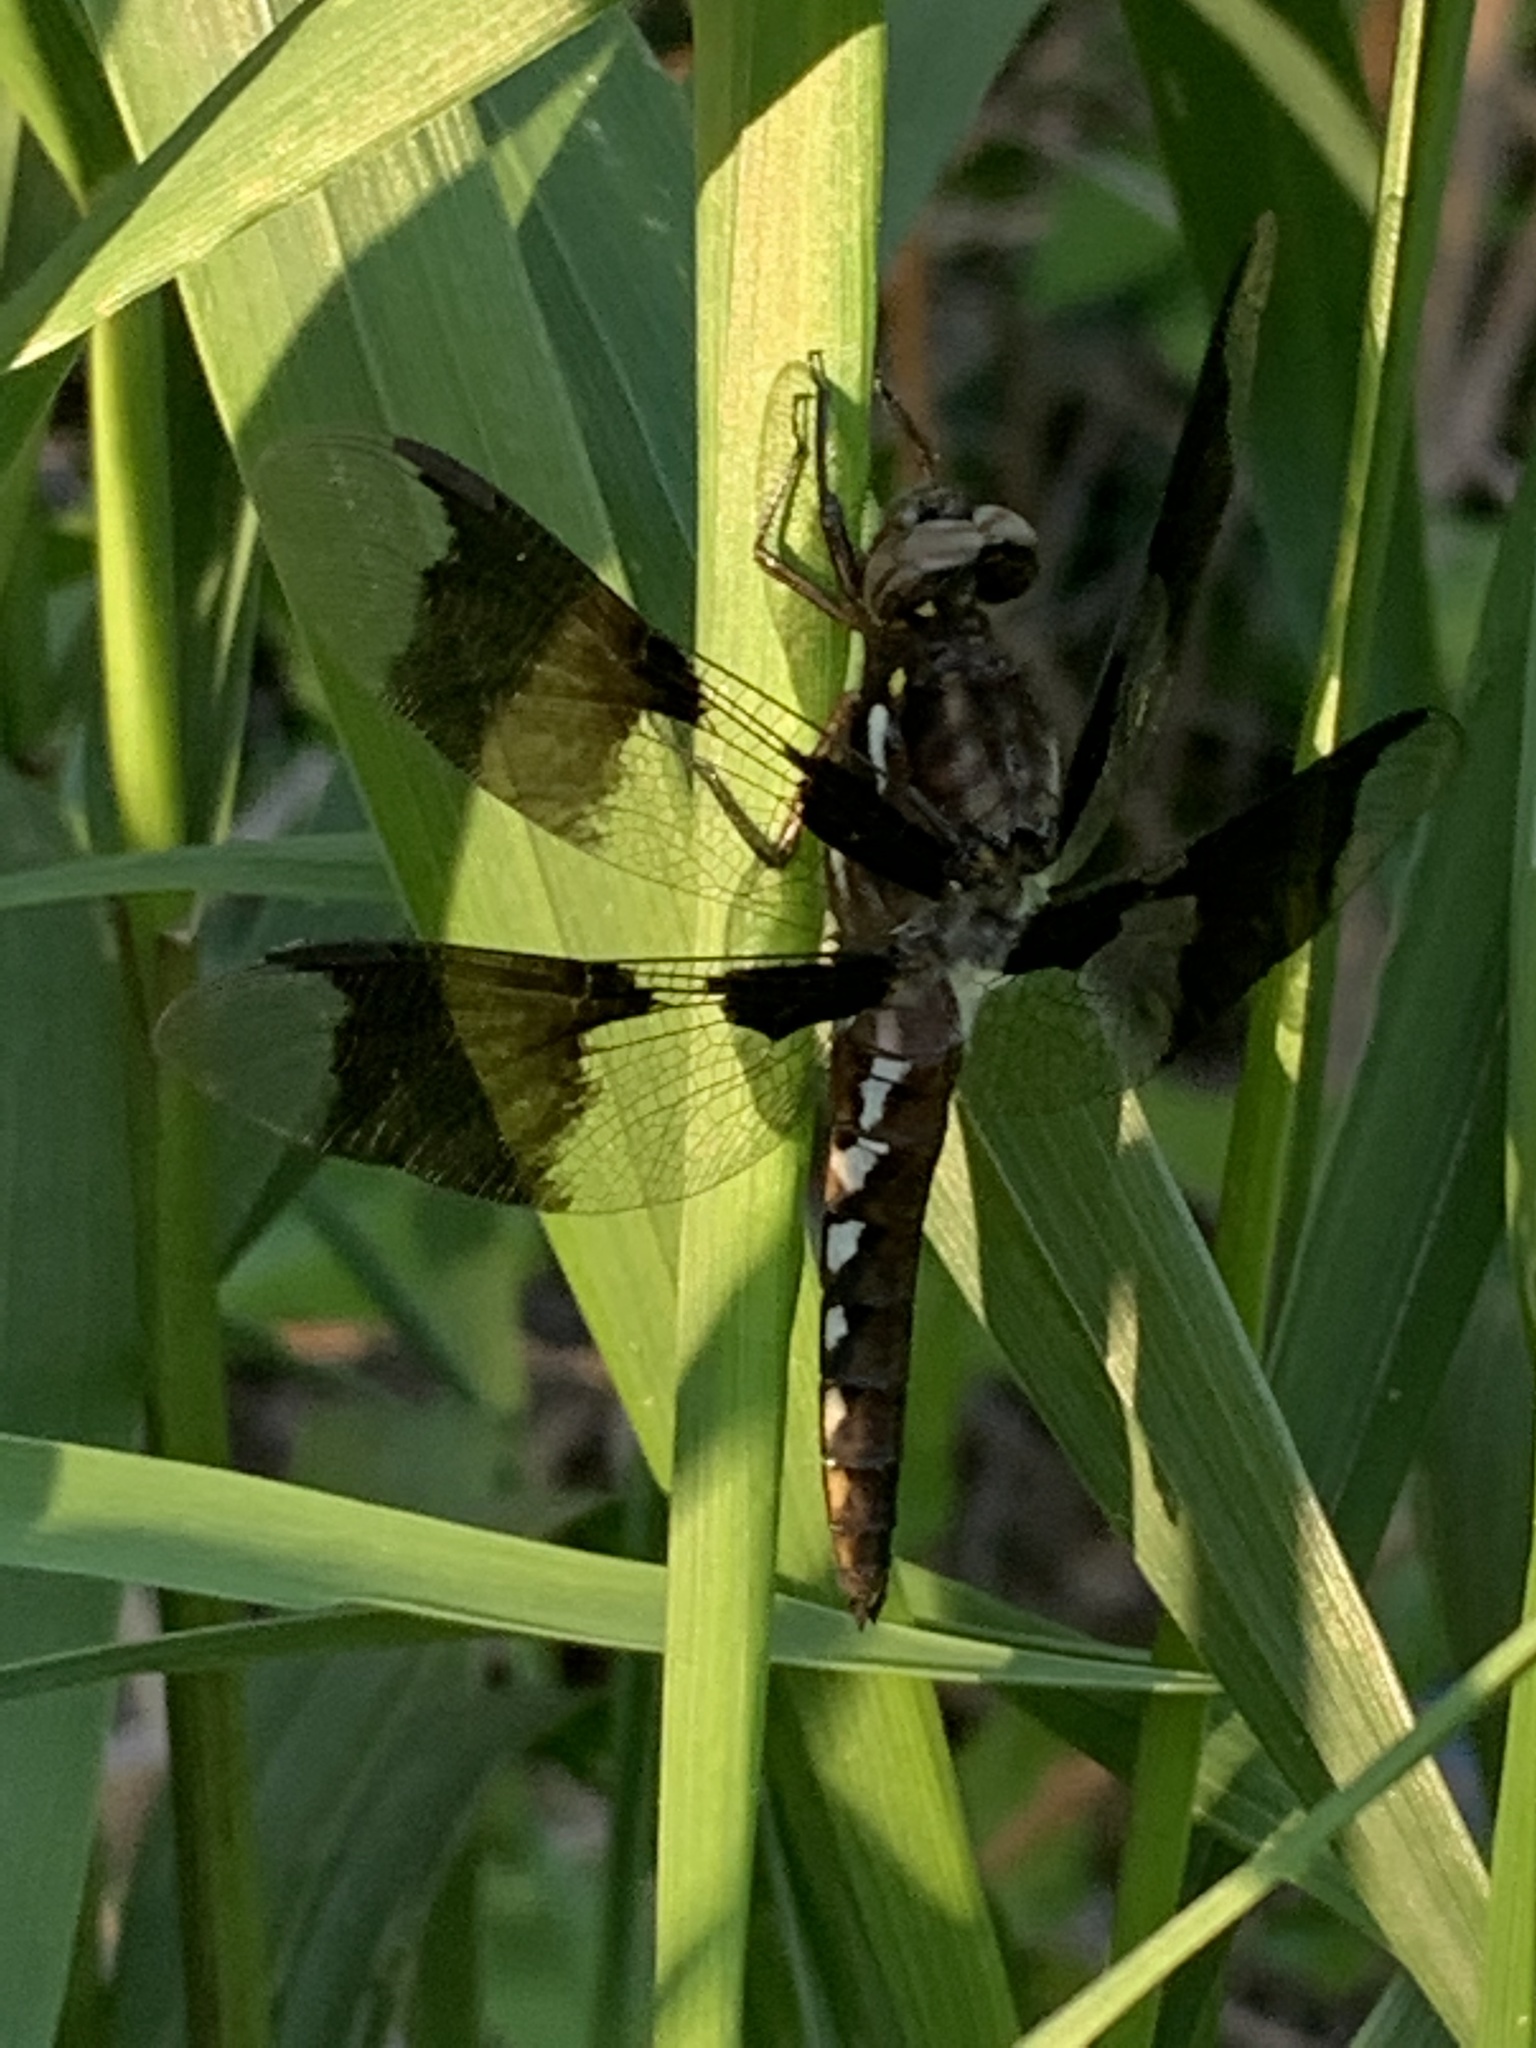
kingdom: Animalia
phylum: Arthropoda
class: Insecta
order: Odonata
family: Libellulidae
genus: Plathemis
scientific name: Plathemis lydia
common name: Common whitetail
